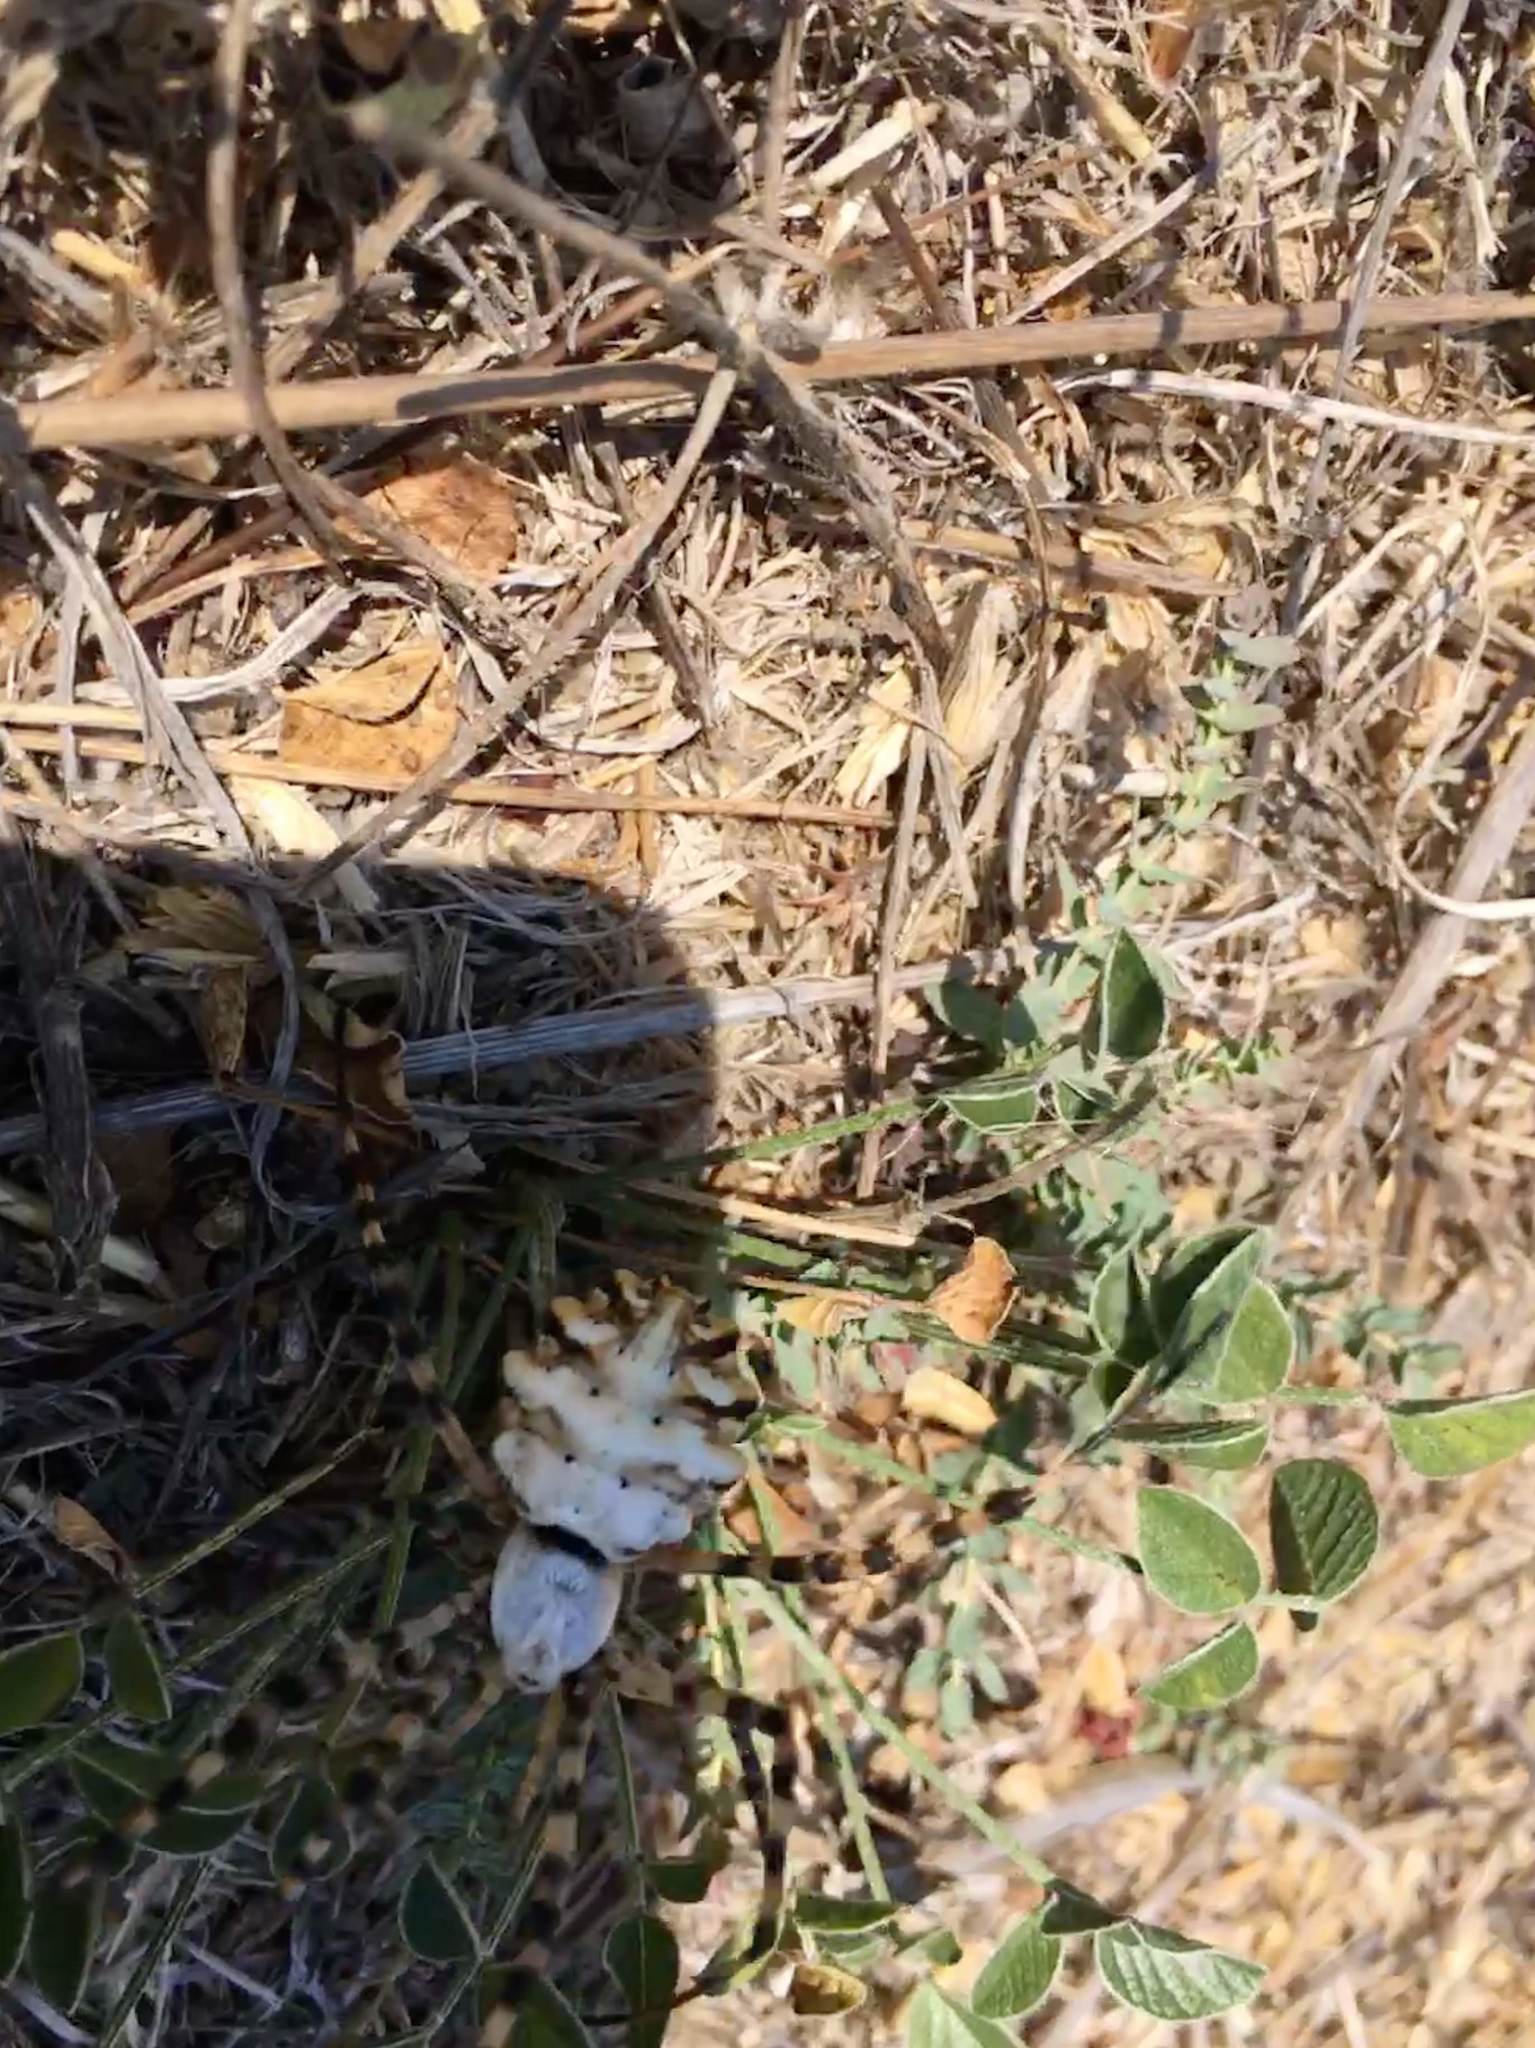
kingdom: Animalia
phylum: Arthropoda
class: Arachnida
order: Araneae
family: Araneidae
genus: Argiope
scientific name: Argiope lobata
